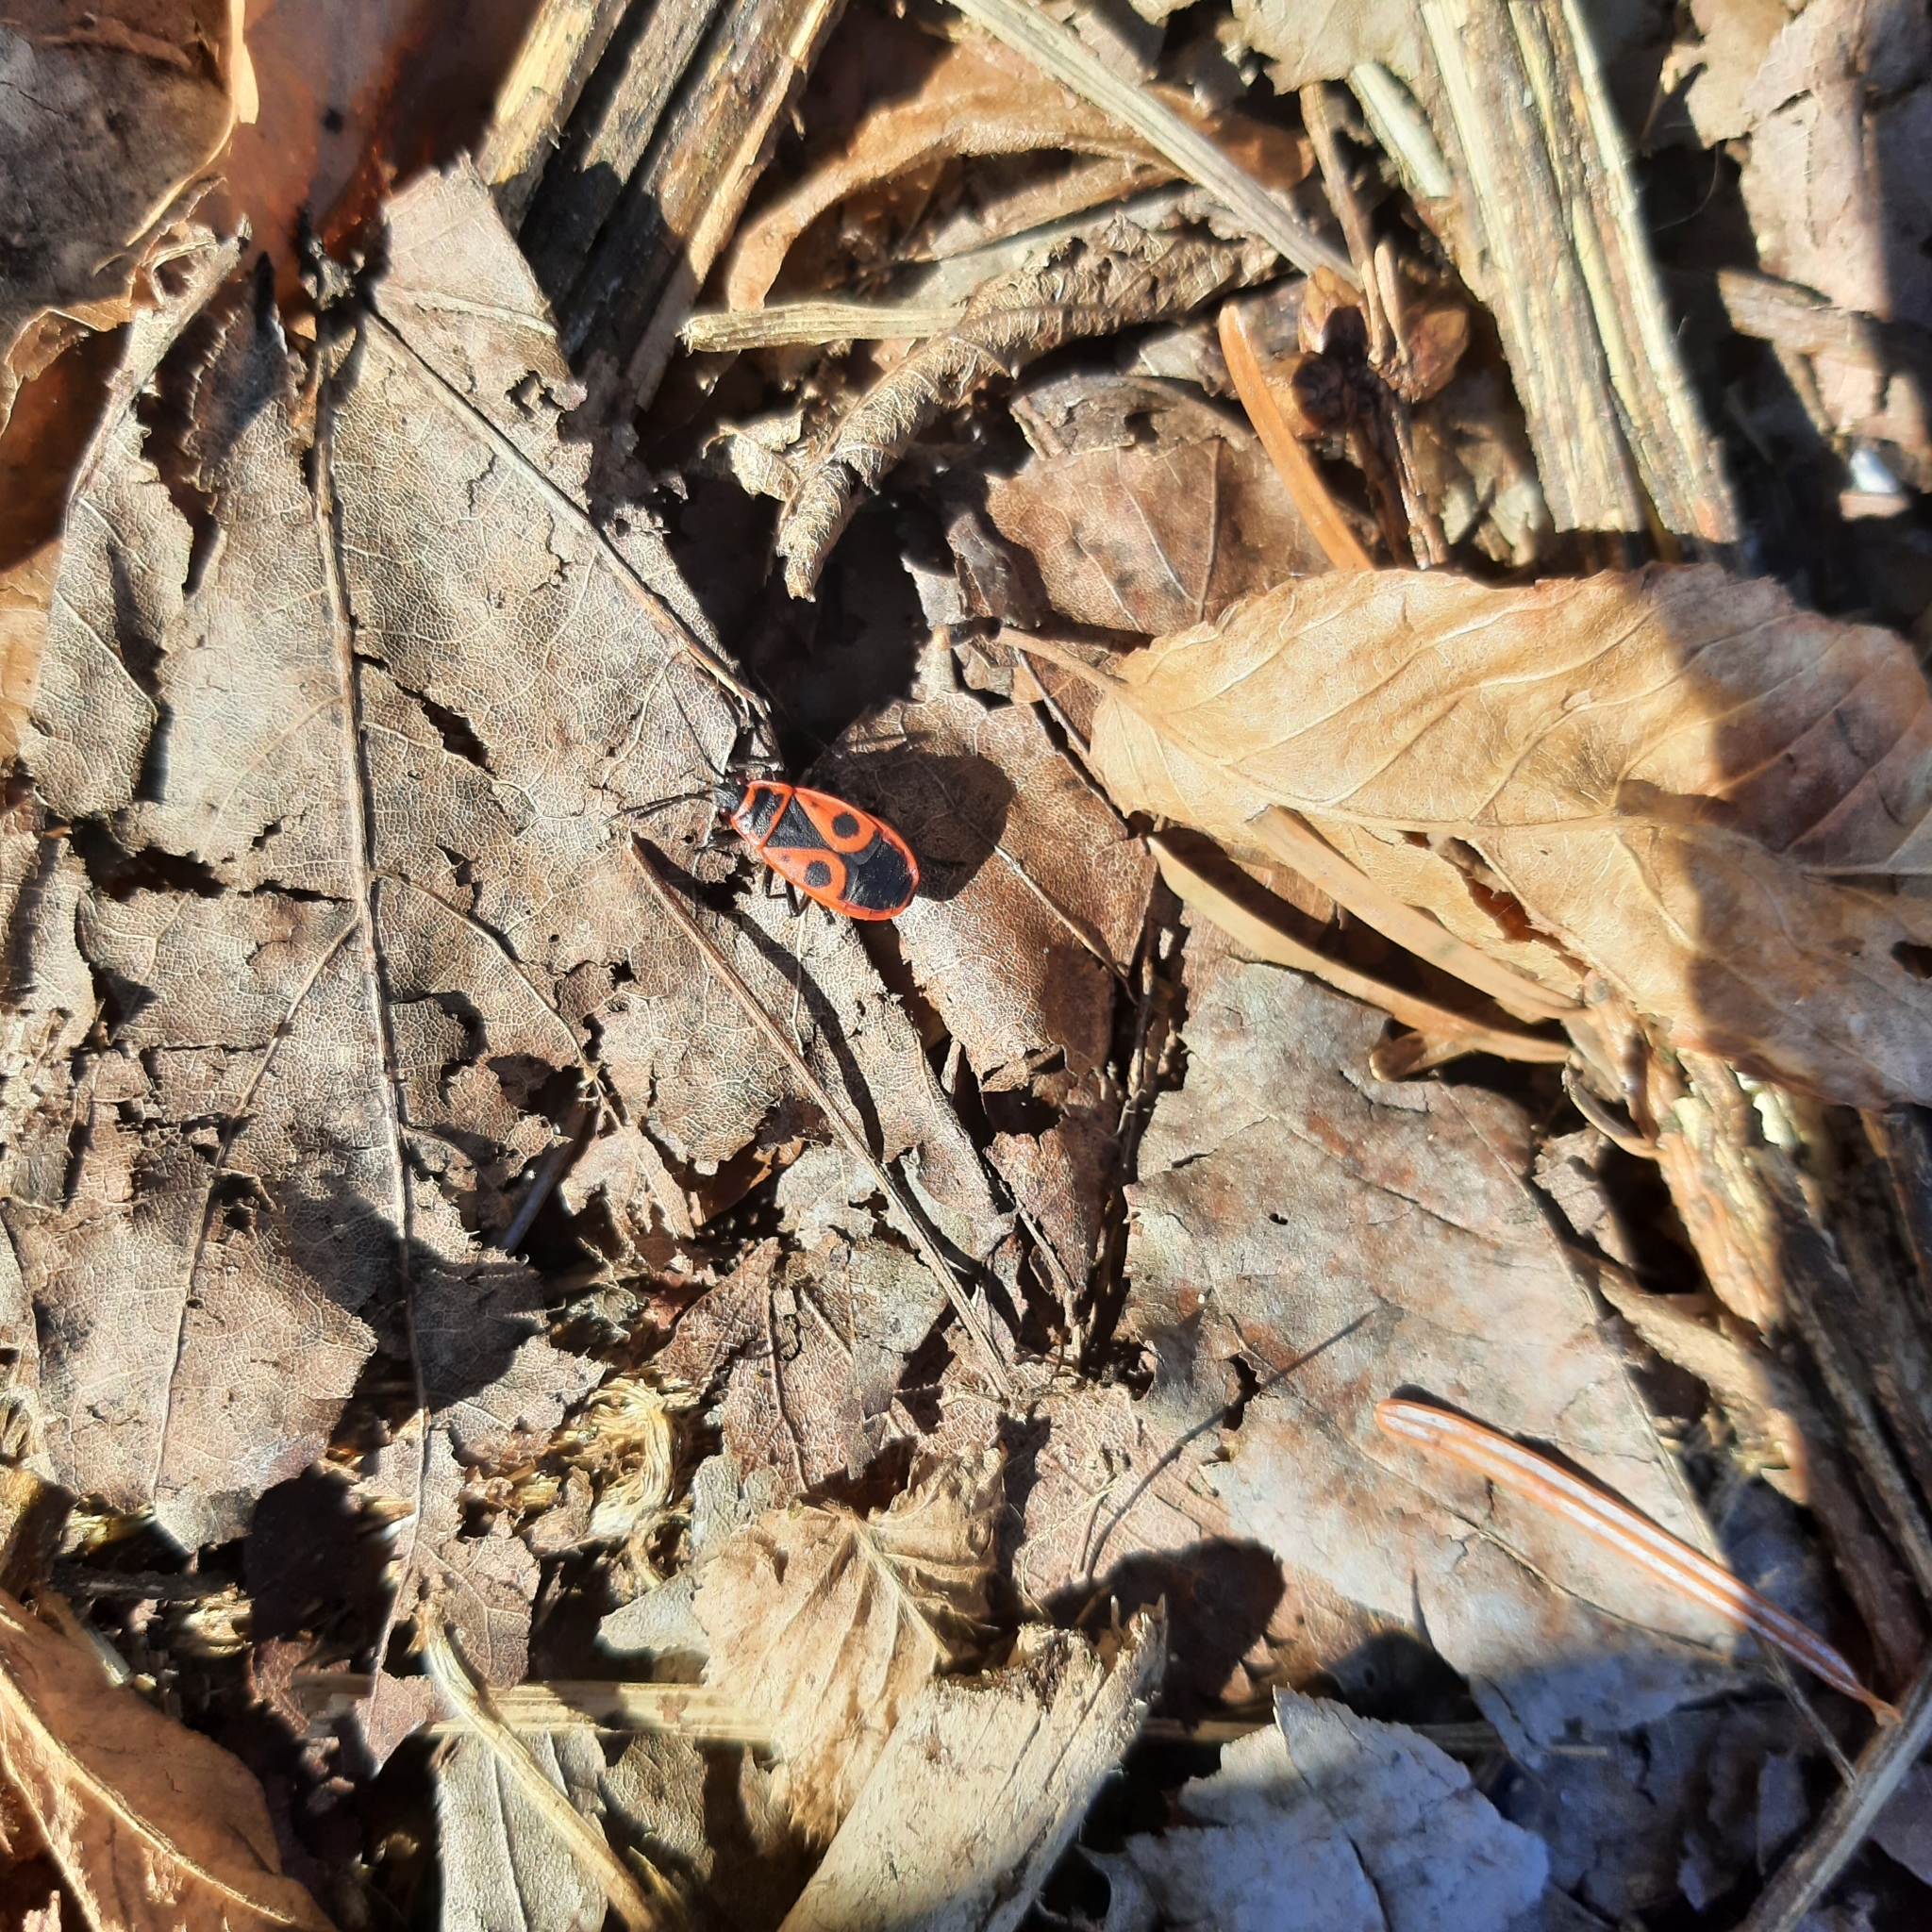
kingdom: Animalia
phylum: Arthropoda
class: Insecta
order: Hemiptera
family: Pyrrhocoridae
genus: Pyrrhocoris
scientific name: Pyrrhocoris apterus
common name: Firebug
